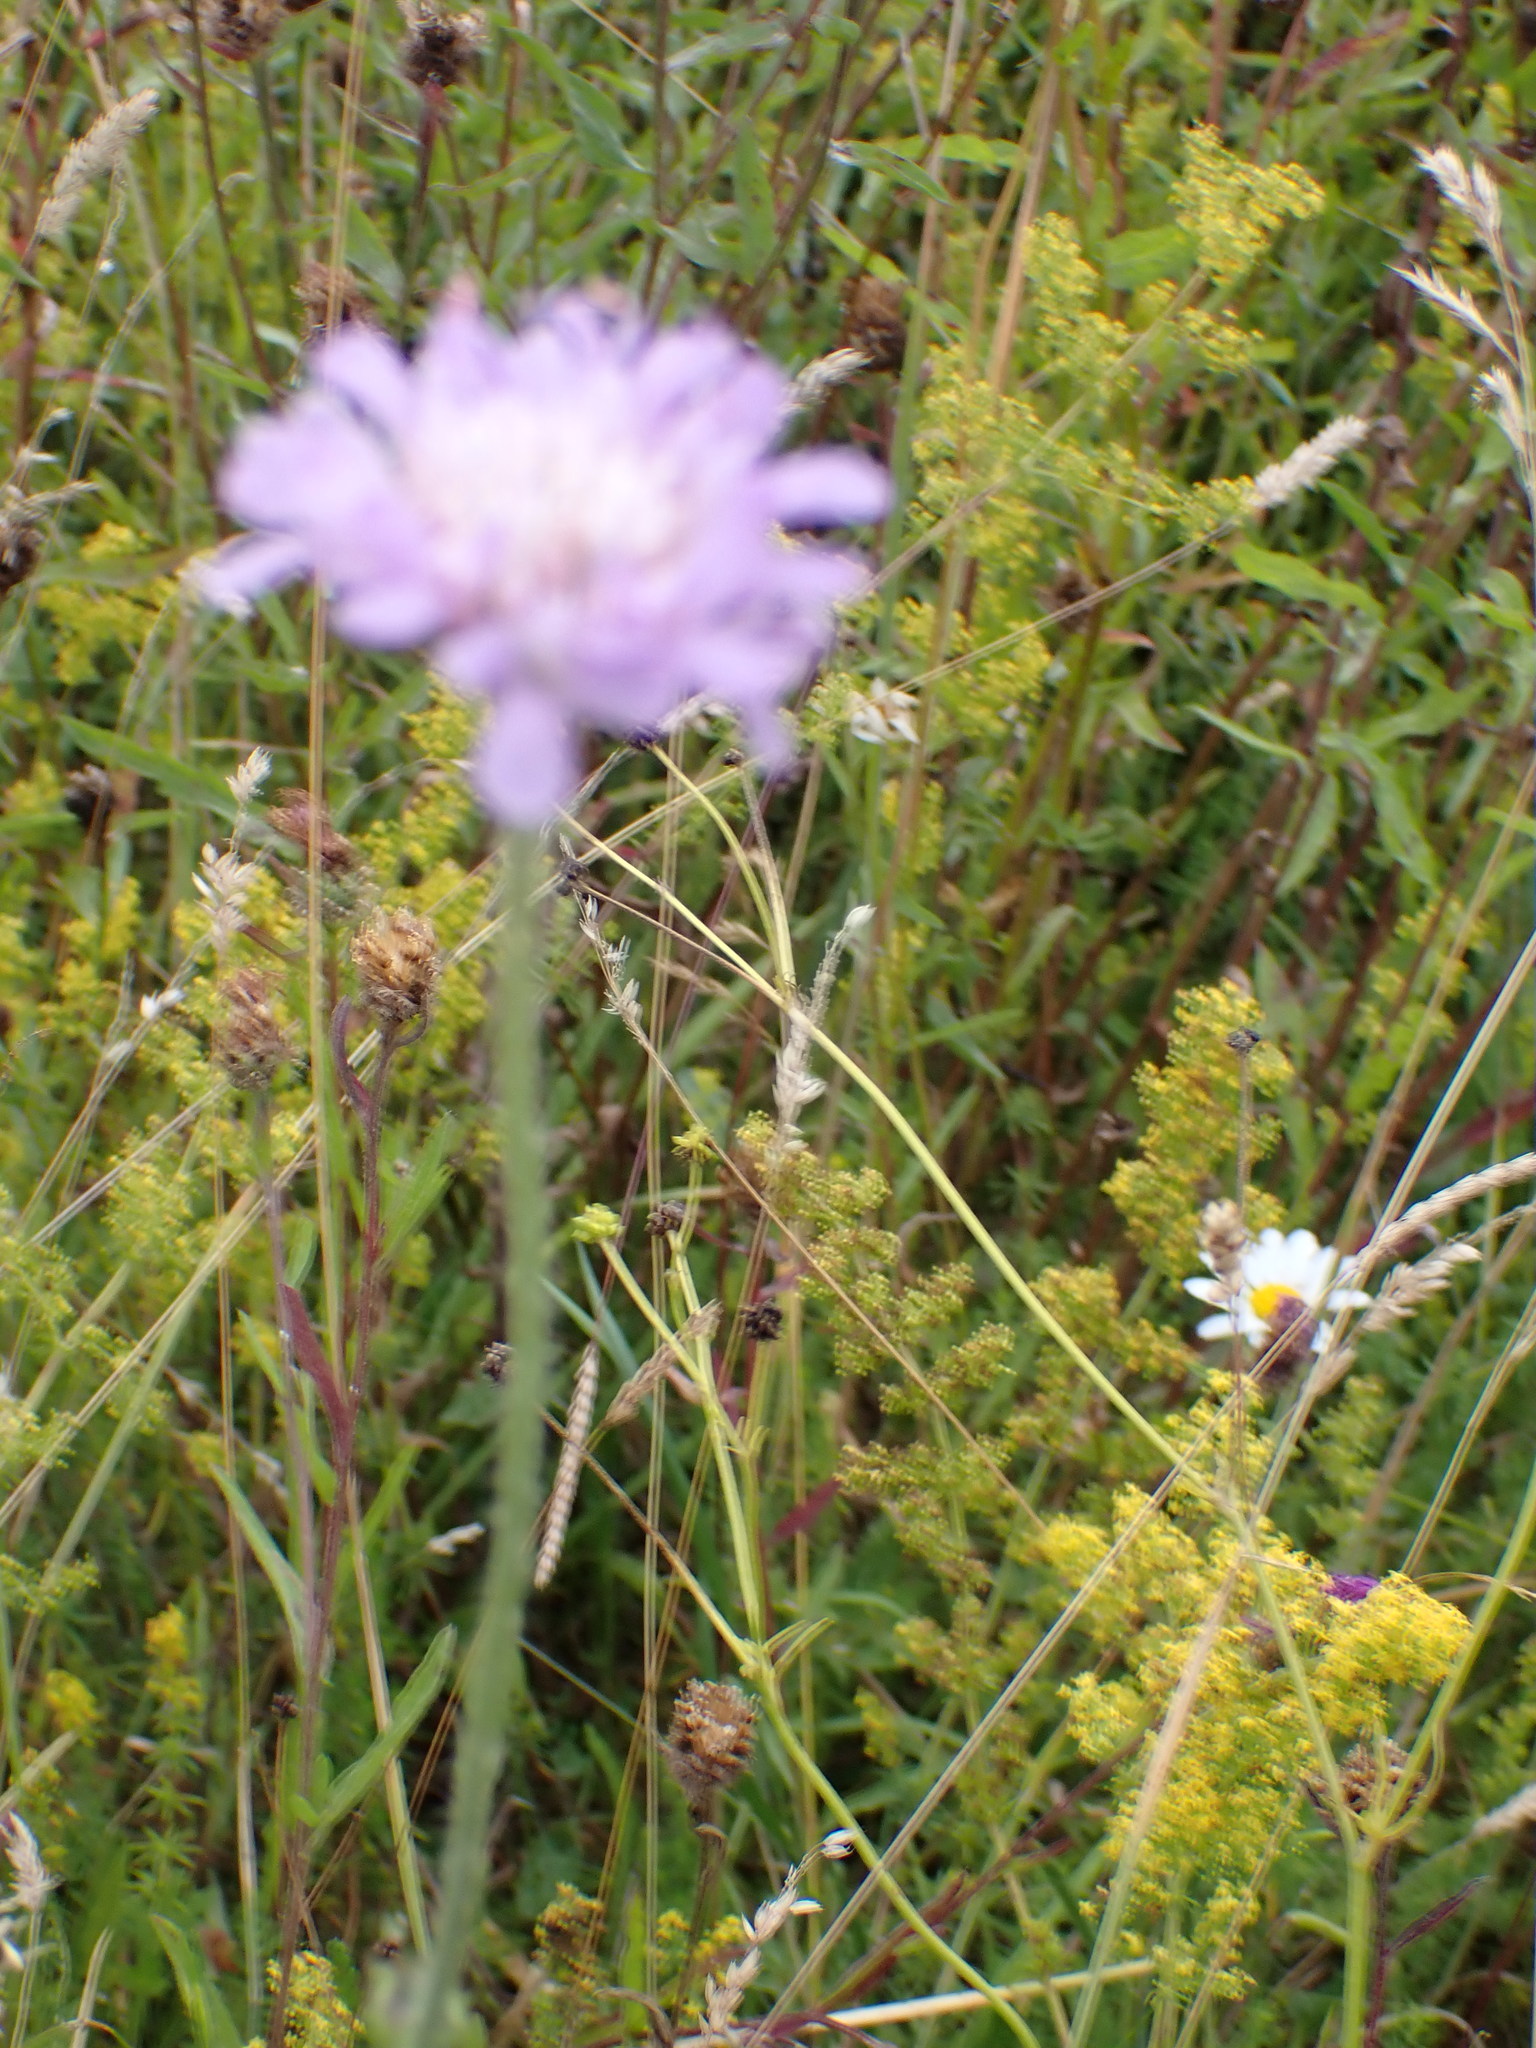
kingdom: Plantae
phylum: Tracheophyta
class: Magnoliopsida
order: Dipsacales
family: Caprifoliaceae
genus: Knautia
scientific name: Knautia arvensis
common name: Field scabiosa
